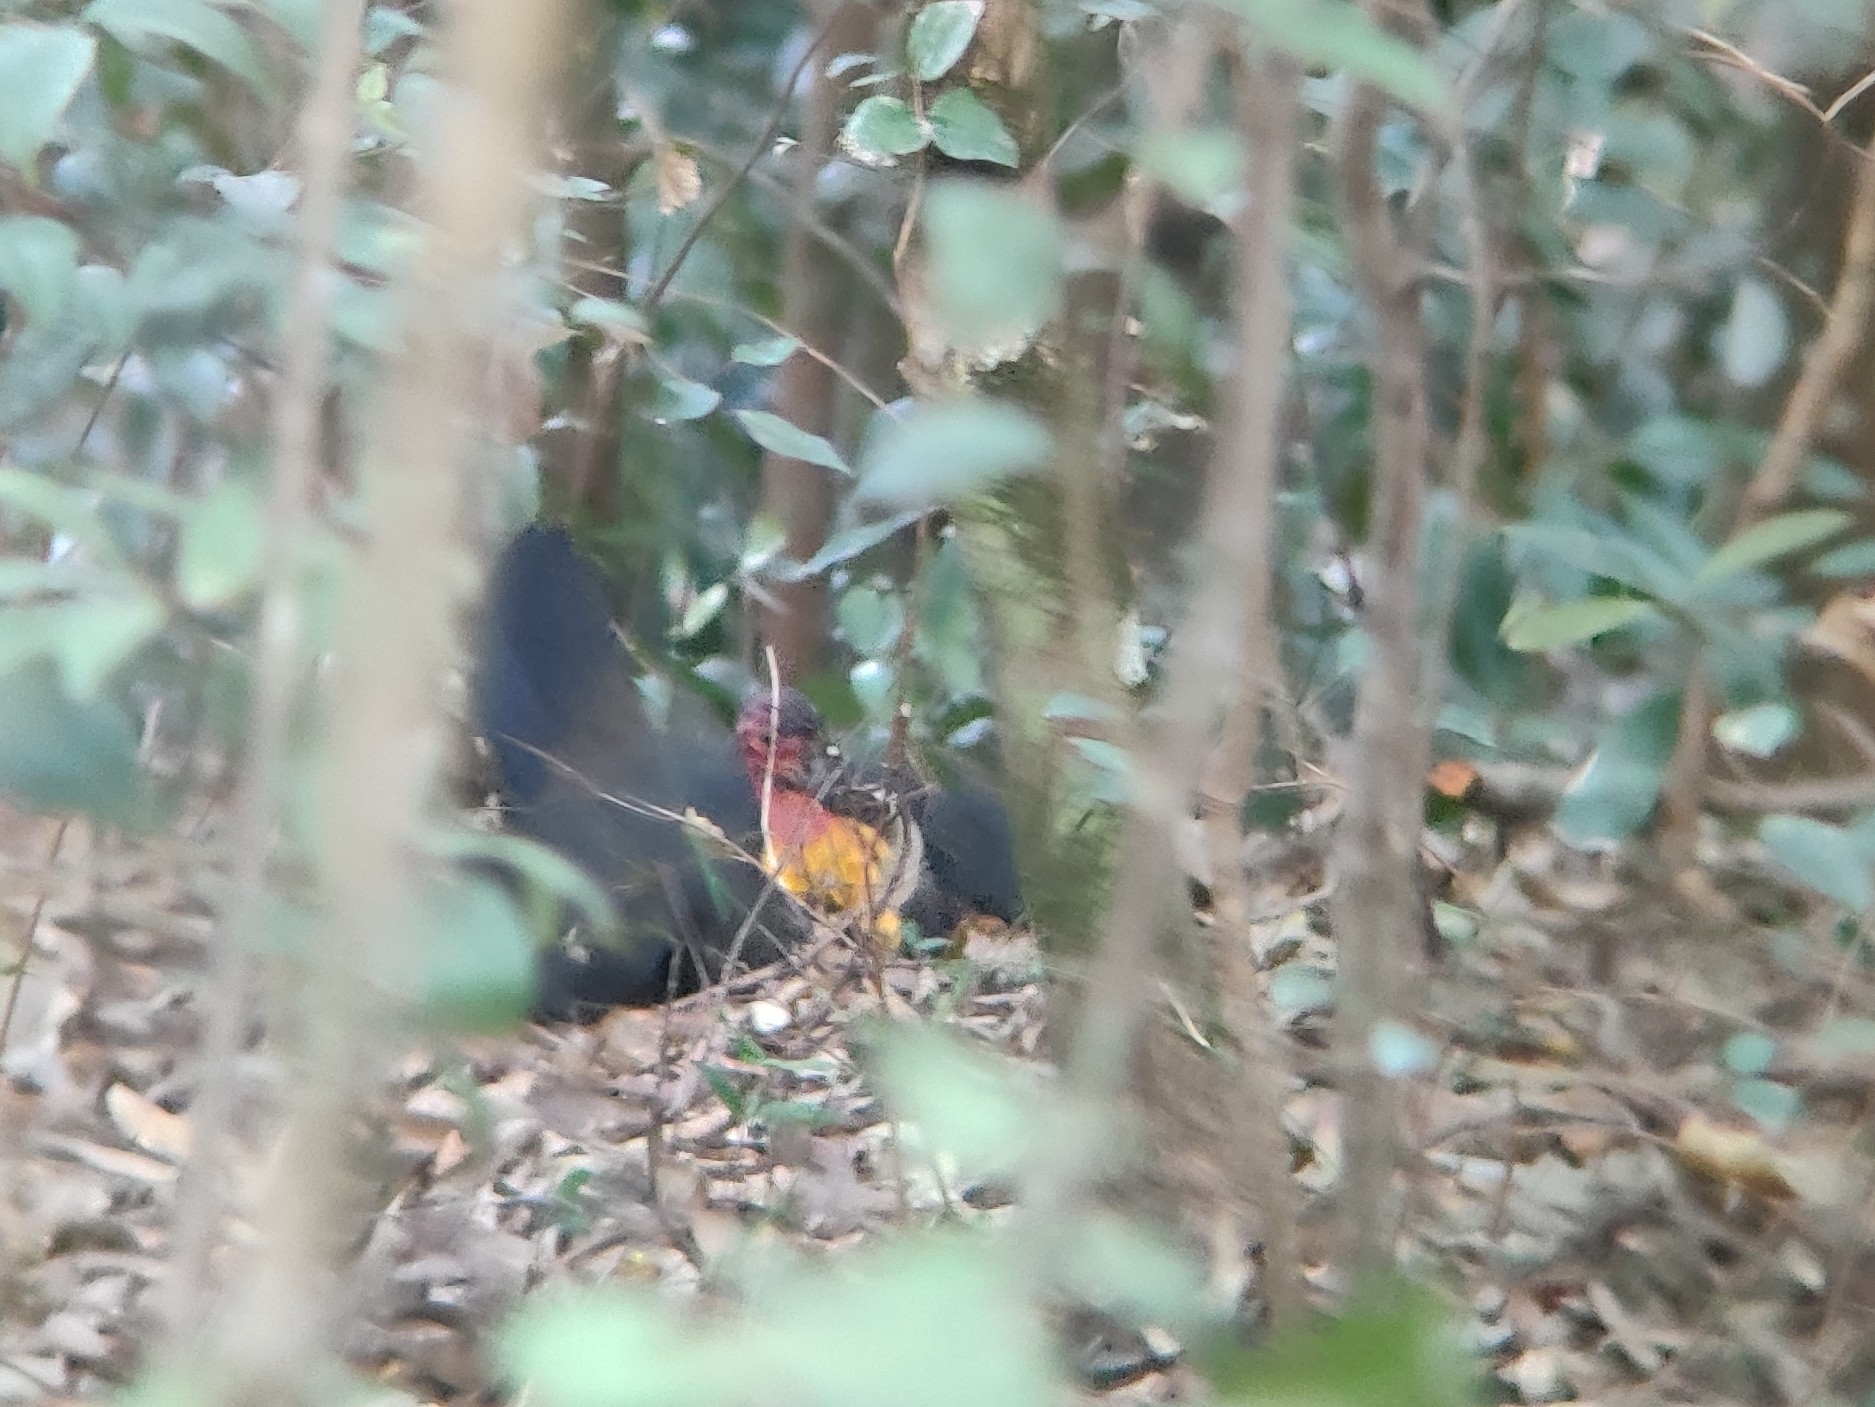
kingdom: Animalia
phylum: Chordata
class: Aves
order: Galliformes
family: Megapodiidae
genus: Alectura
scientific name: Alectura lathami
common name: Australian brushturkey
